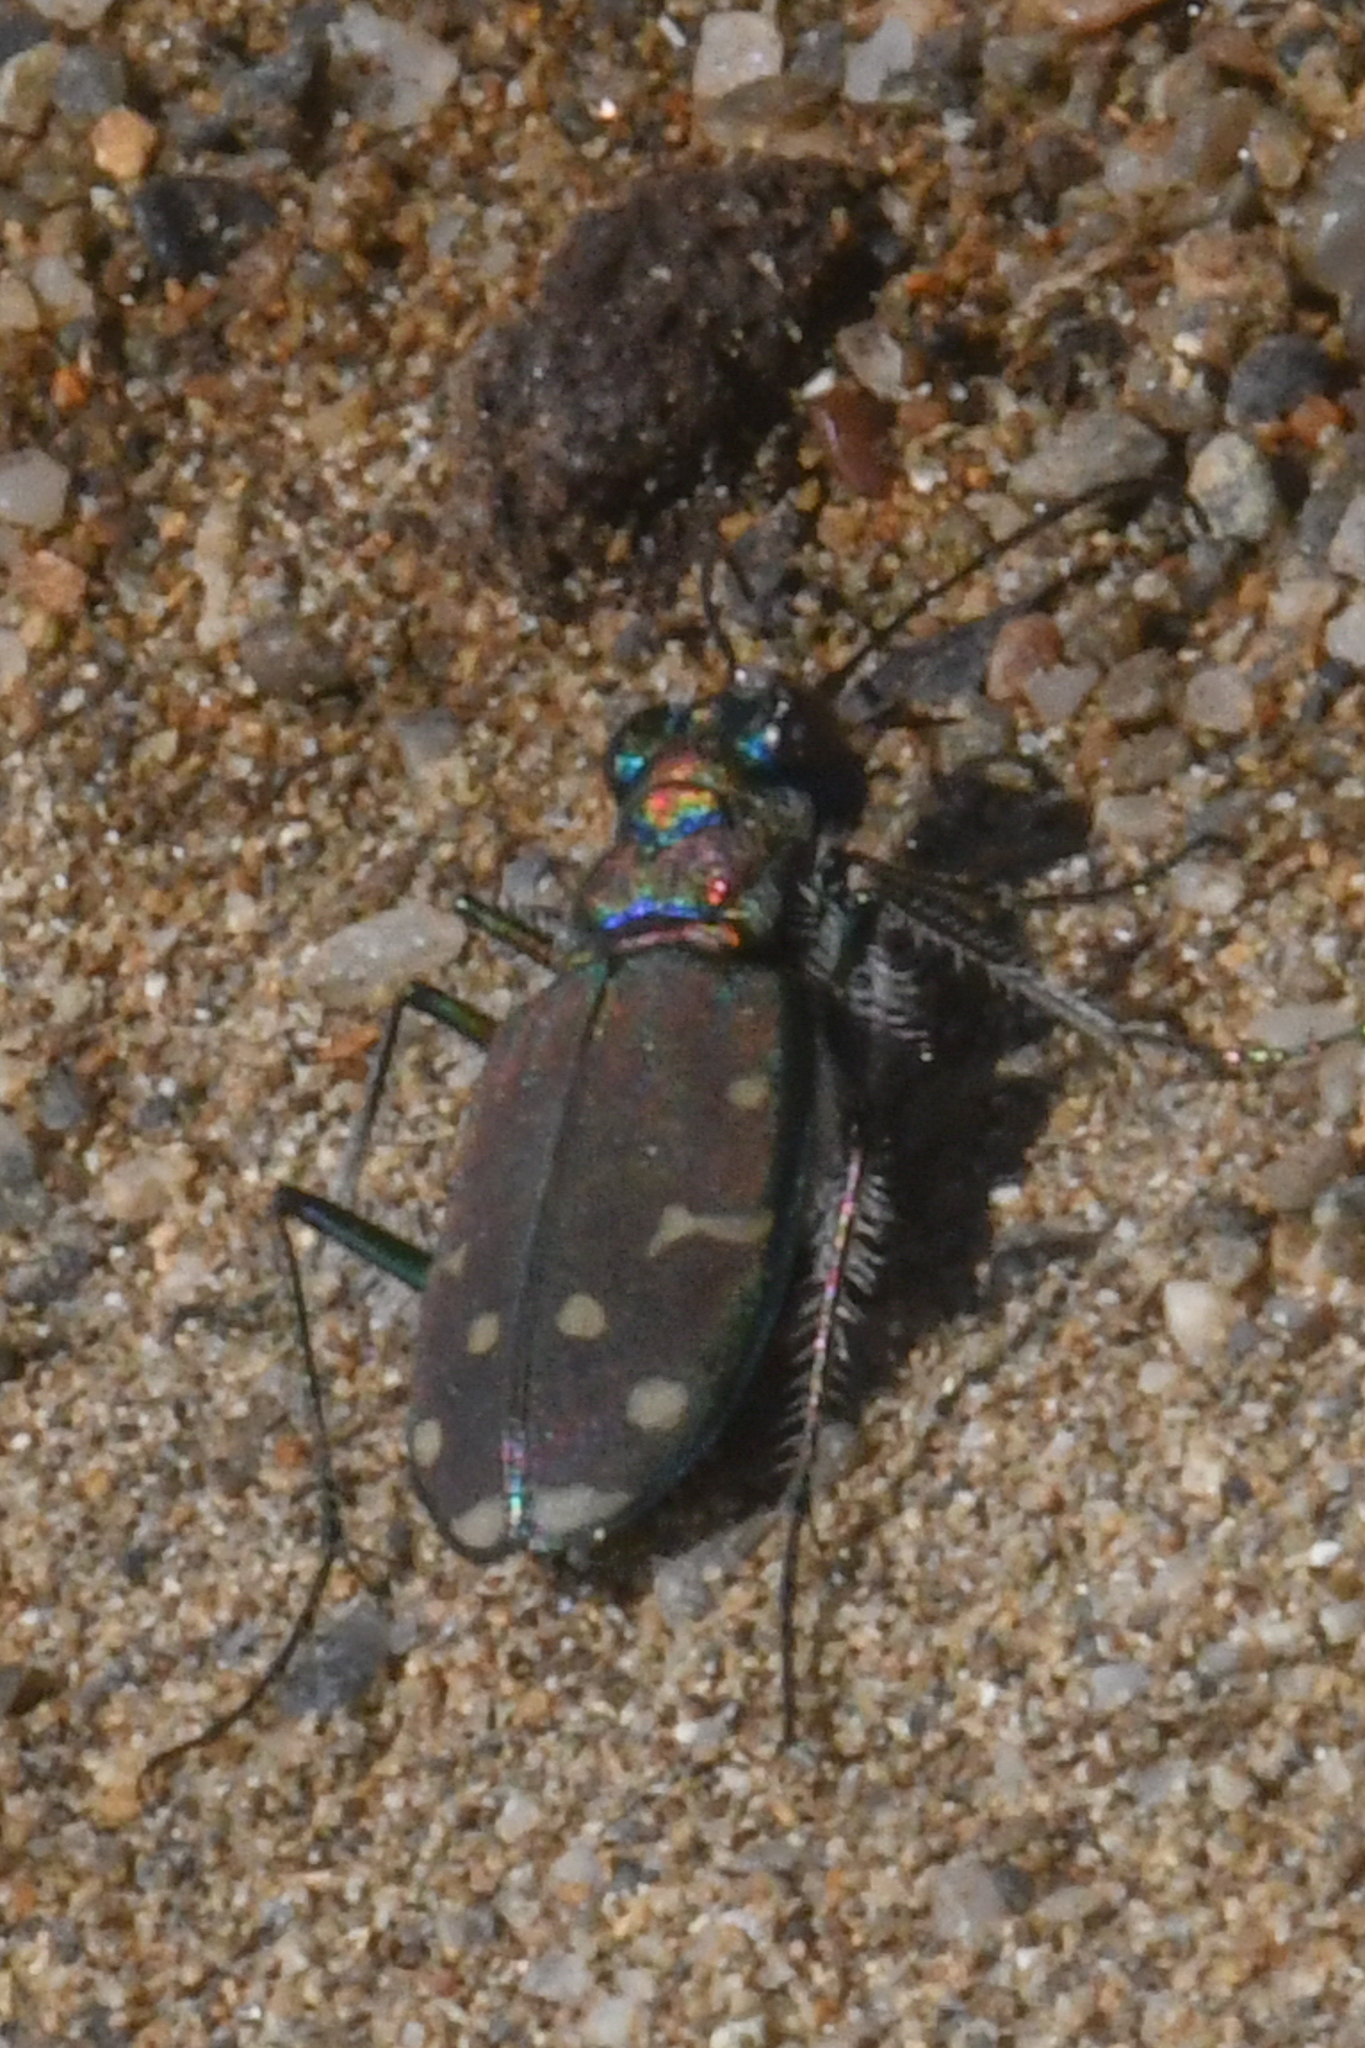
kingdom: Animalia
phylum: Arthropoda
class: Insecta
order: Coleoptera
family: Carabidae
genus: Cicindela
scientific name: Cicindela oregona
